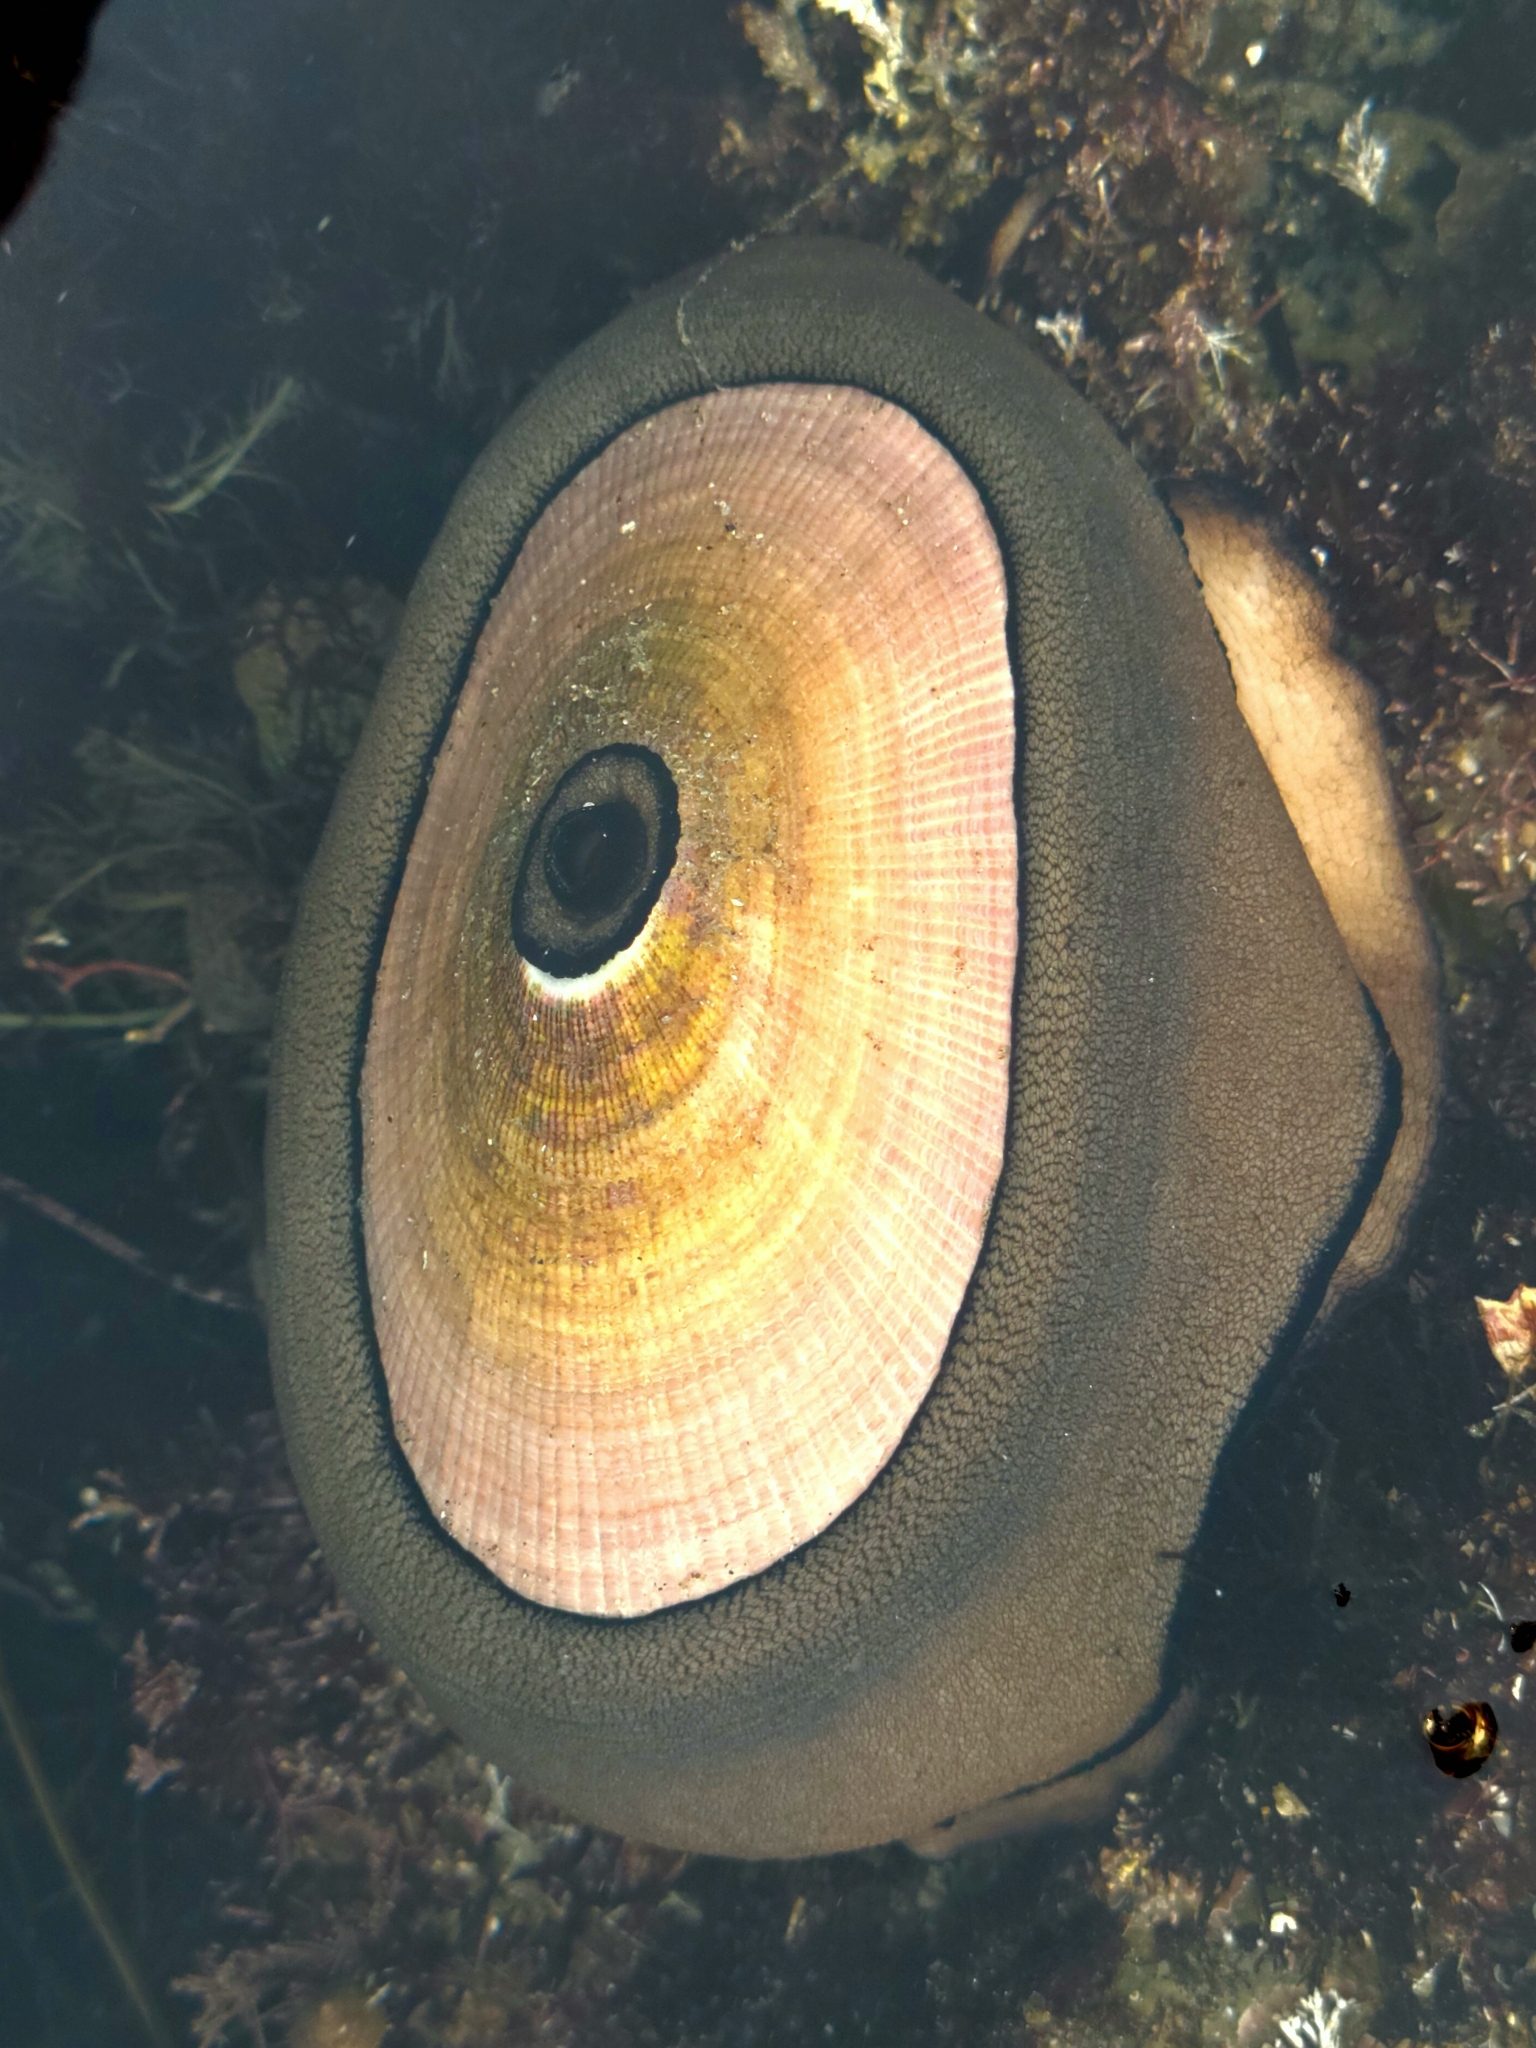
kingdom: Animalia
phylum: Mollusca
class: Gastropoda
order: Lepetellida
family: Fissurellidae
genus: Megathura
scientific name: Megathura crenulata
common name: Giant keyhole limpet
